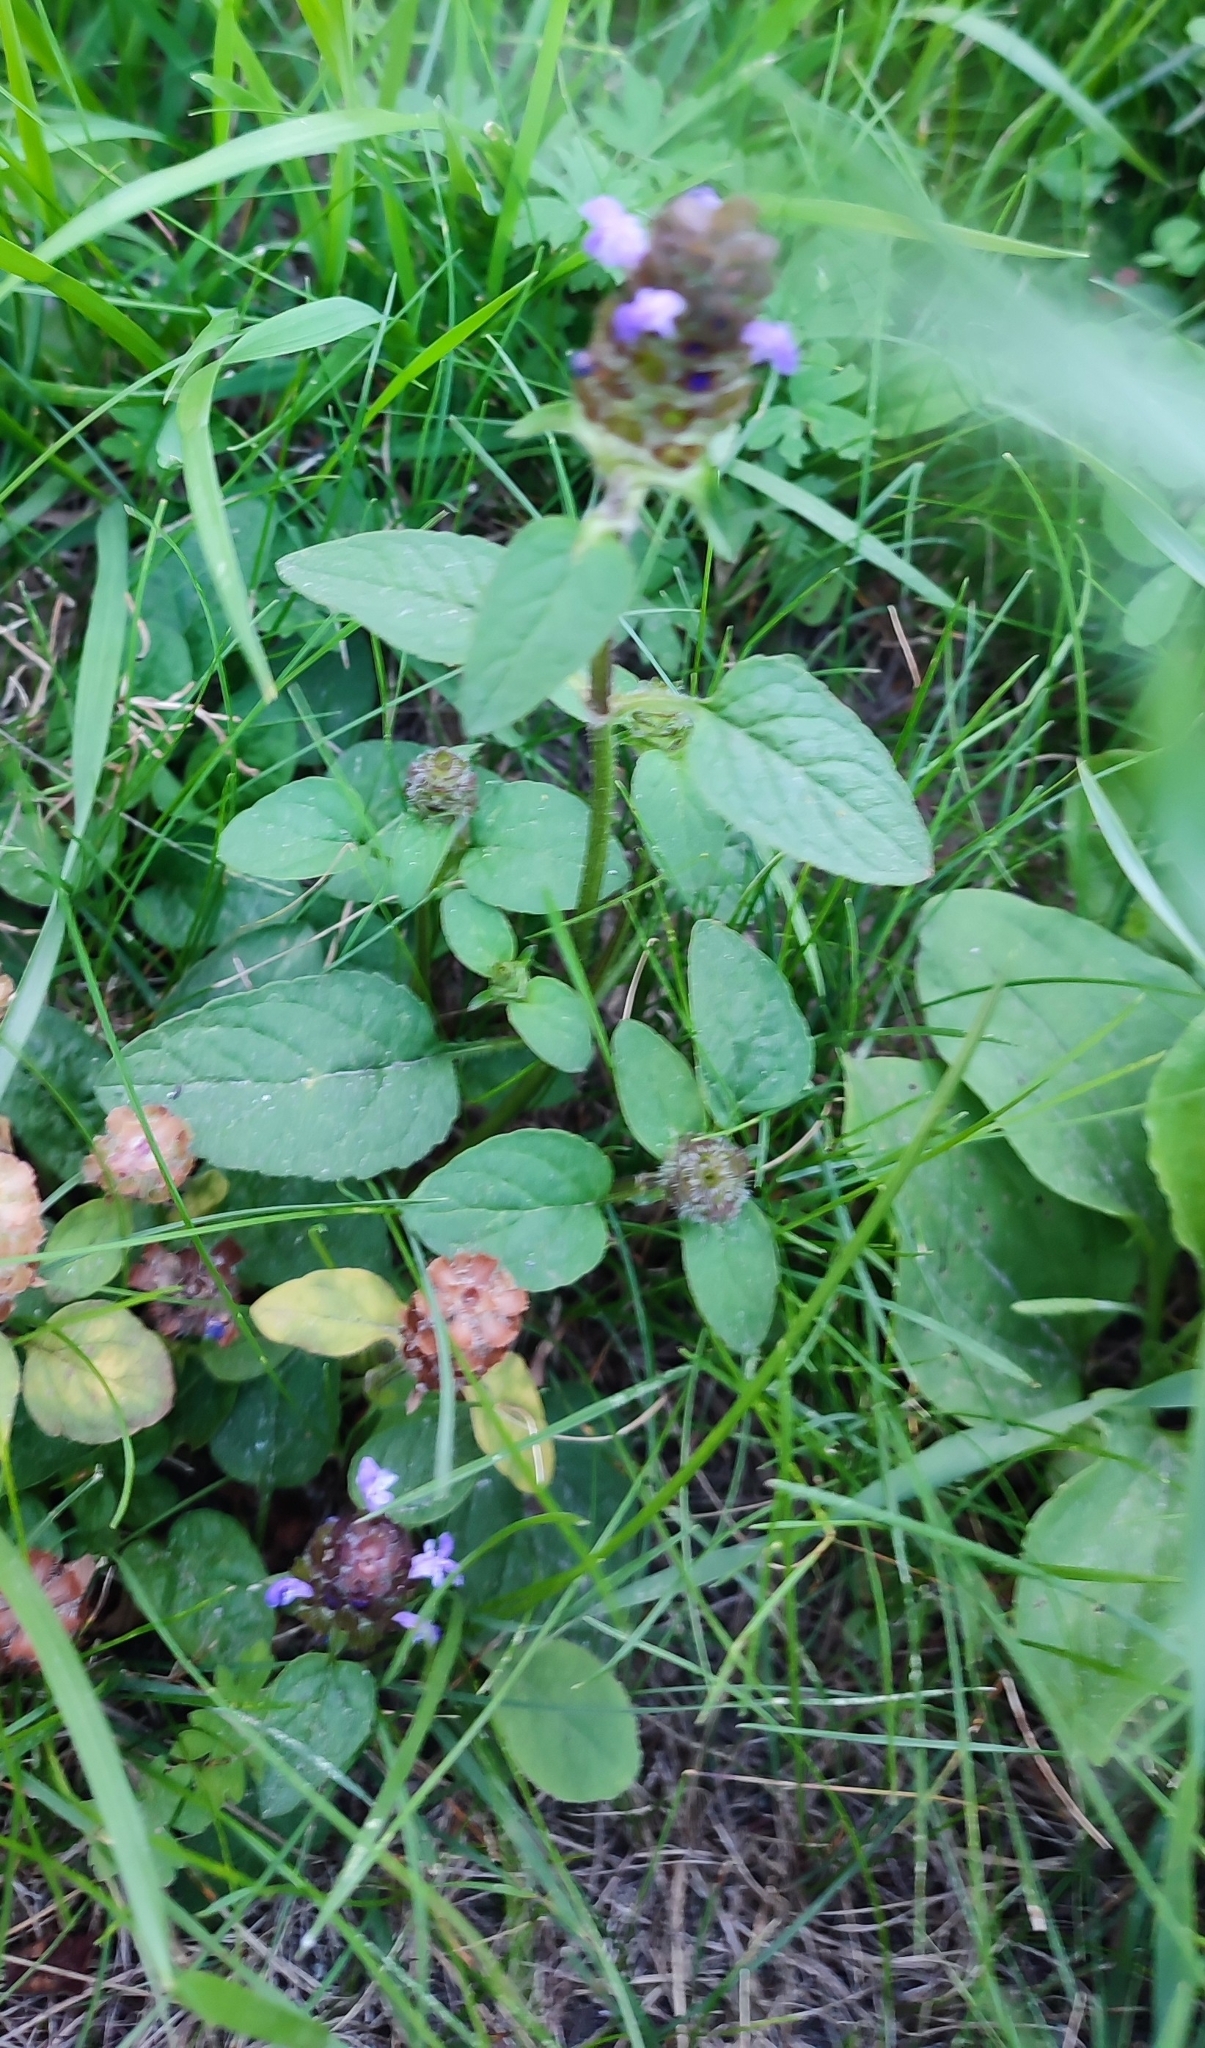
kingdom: Plantae
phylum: Tracheophyta
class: Magnoliopsida
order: Lamiales
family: Lamiaceae
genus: Prunella
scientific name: Prunella vulgaris
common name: Heal-all
